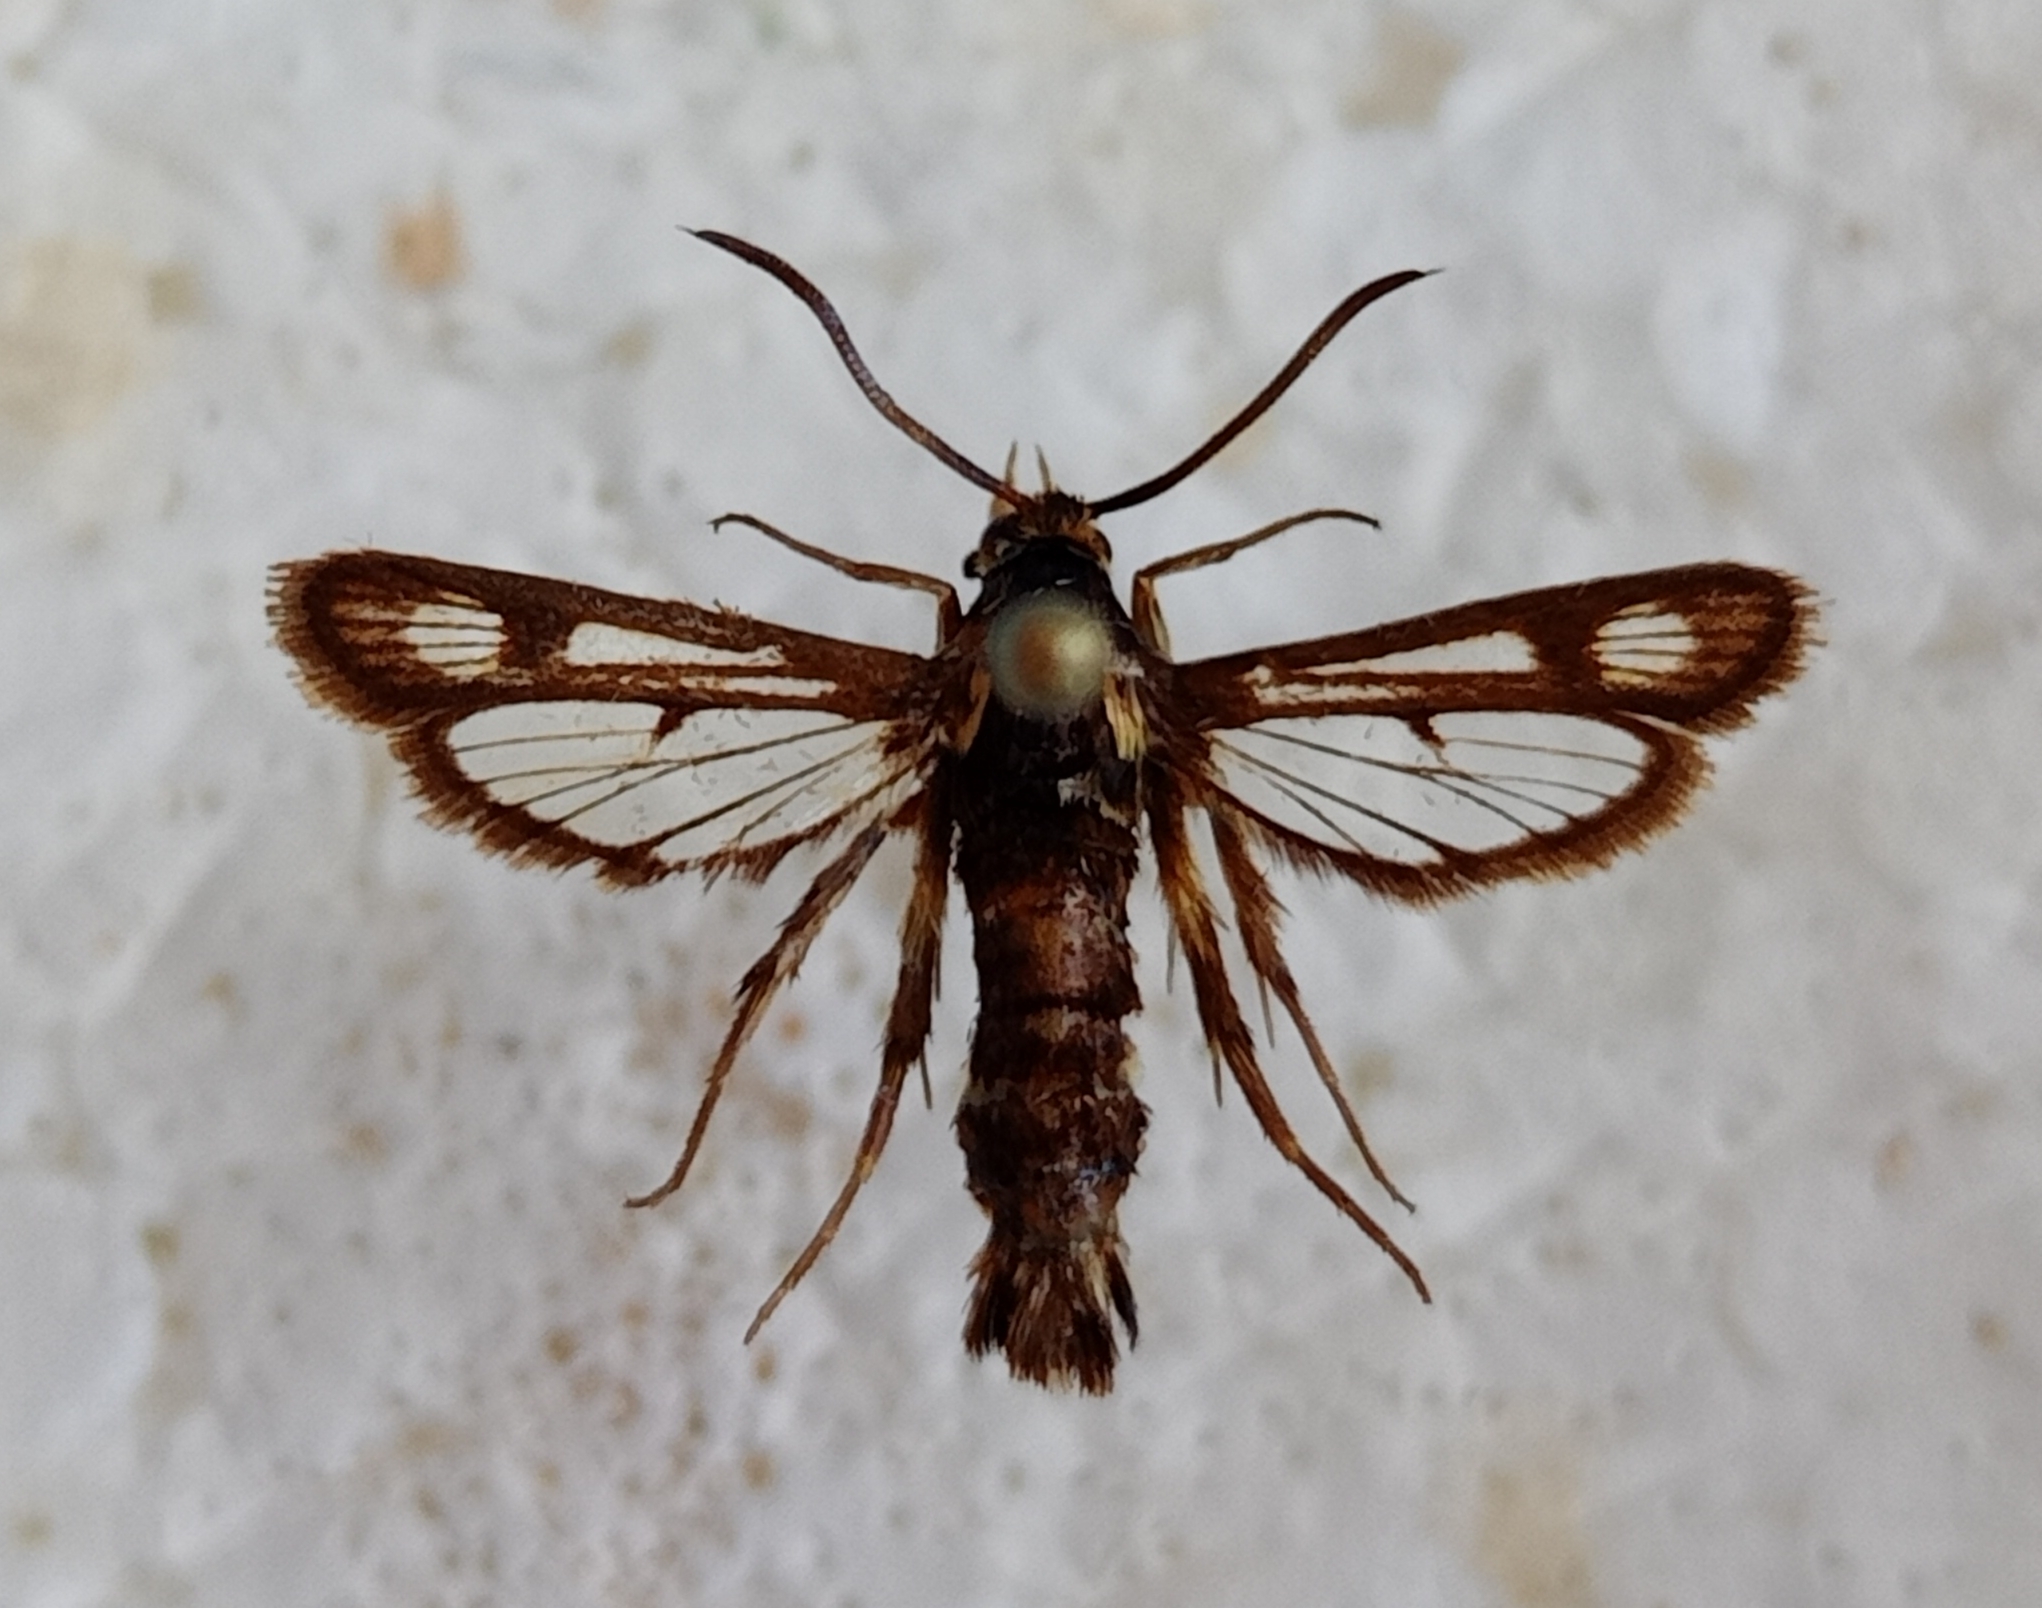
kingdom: Animalia
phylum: Arthropoda
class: Insecta
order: Lepidoptera
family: Sesiidae
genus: Chamaesphecia
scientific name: Chamaesphecia doleriformis
